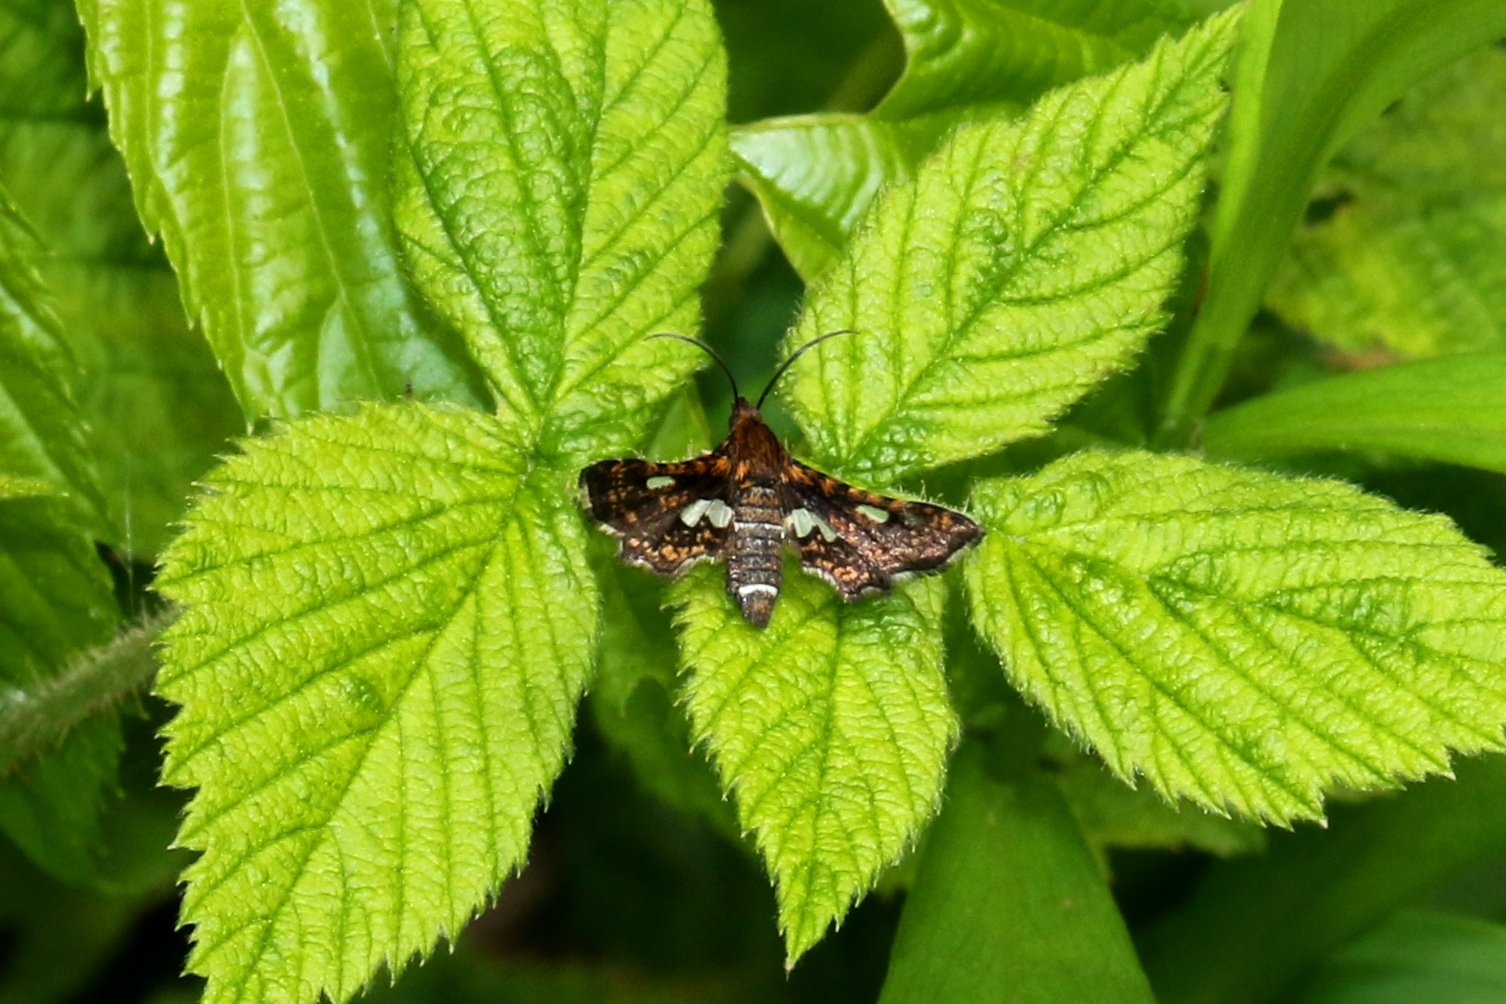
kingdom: Animalia
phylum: Arthropoda
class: Insecta
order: Lepidoptera
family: Thyrididae
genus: Thyris
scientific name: Thyris maculata
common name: Spotted thyris moth
